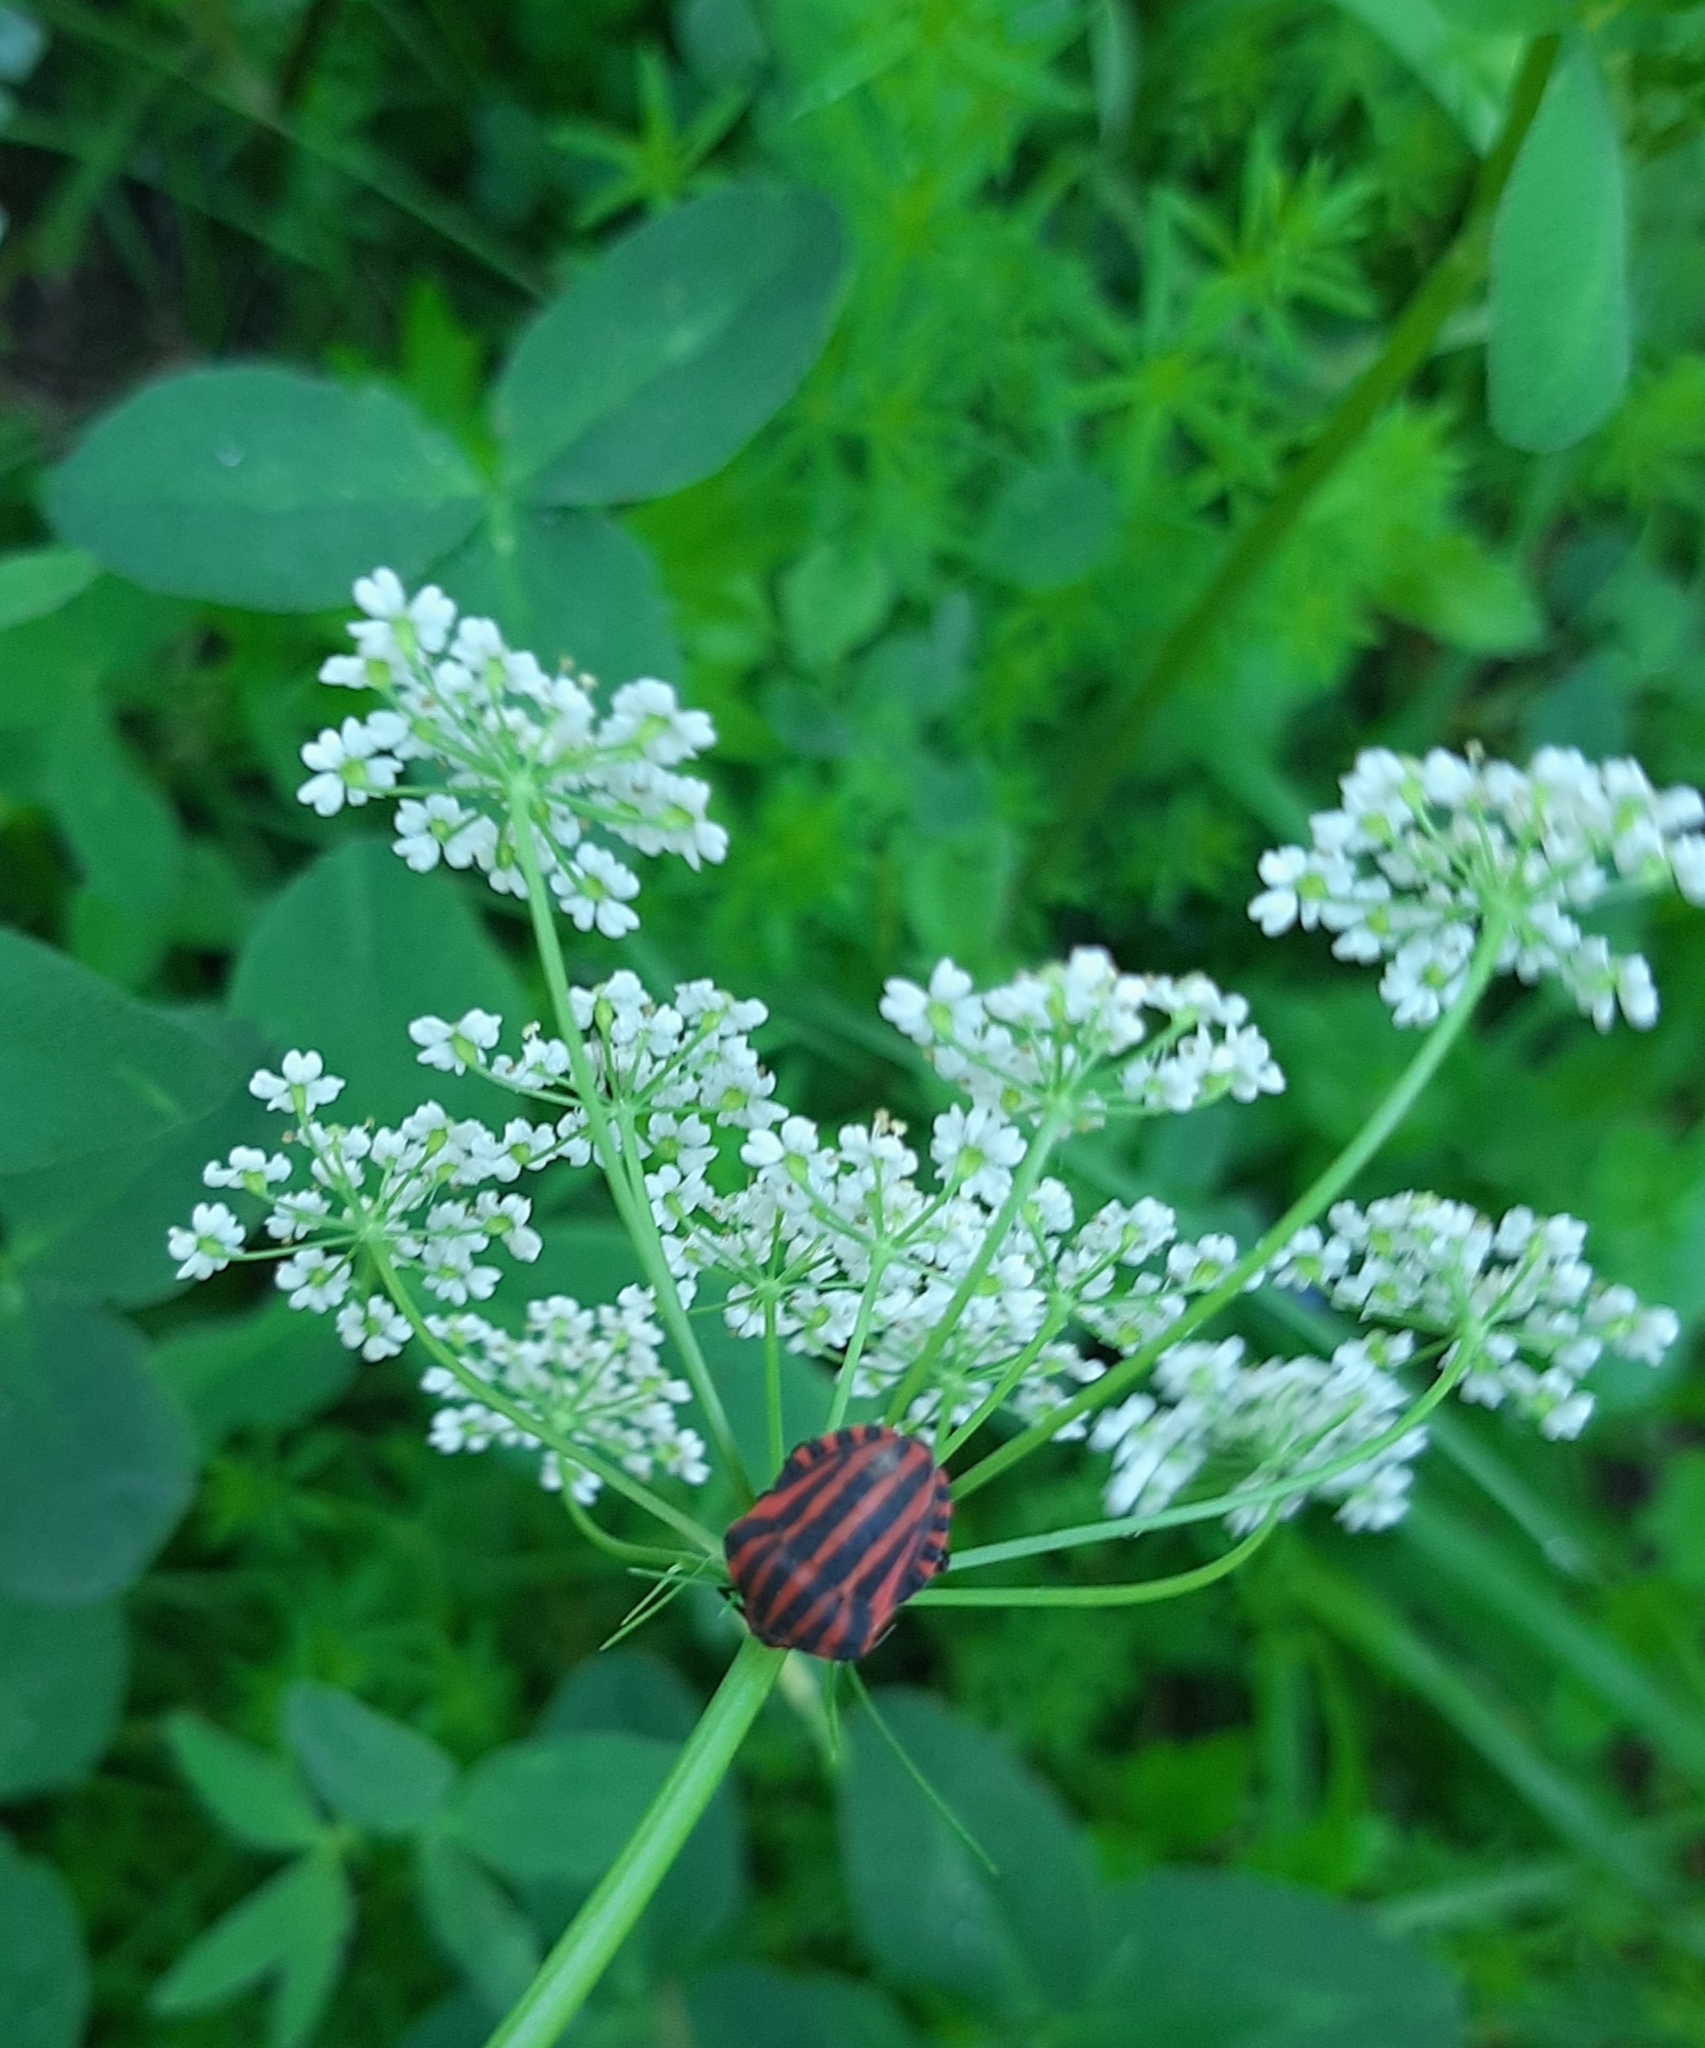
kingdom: Animalia
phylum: Arthropoda
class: Insecta
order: Hemiptera
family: Pentatomidae
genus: Graphosoma
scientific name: Graphosoma italicum
